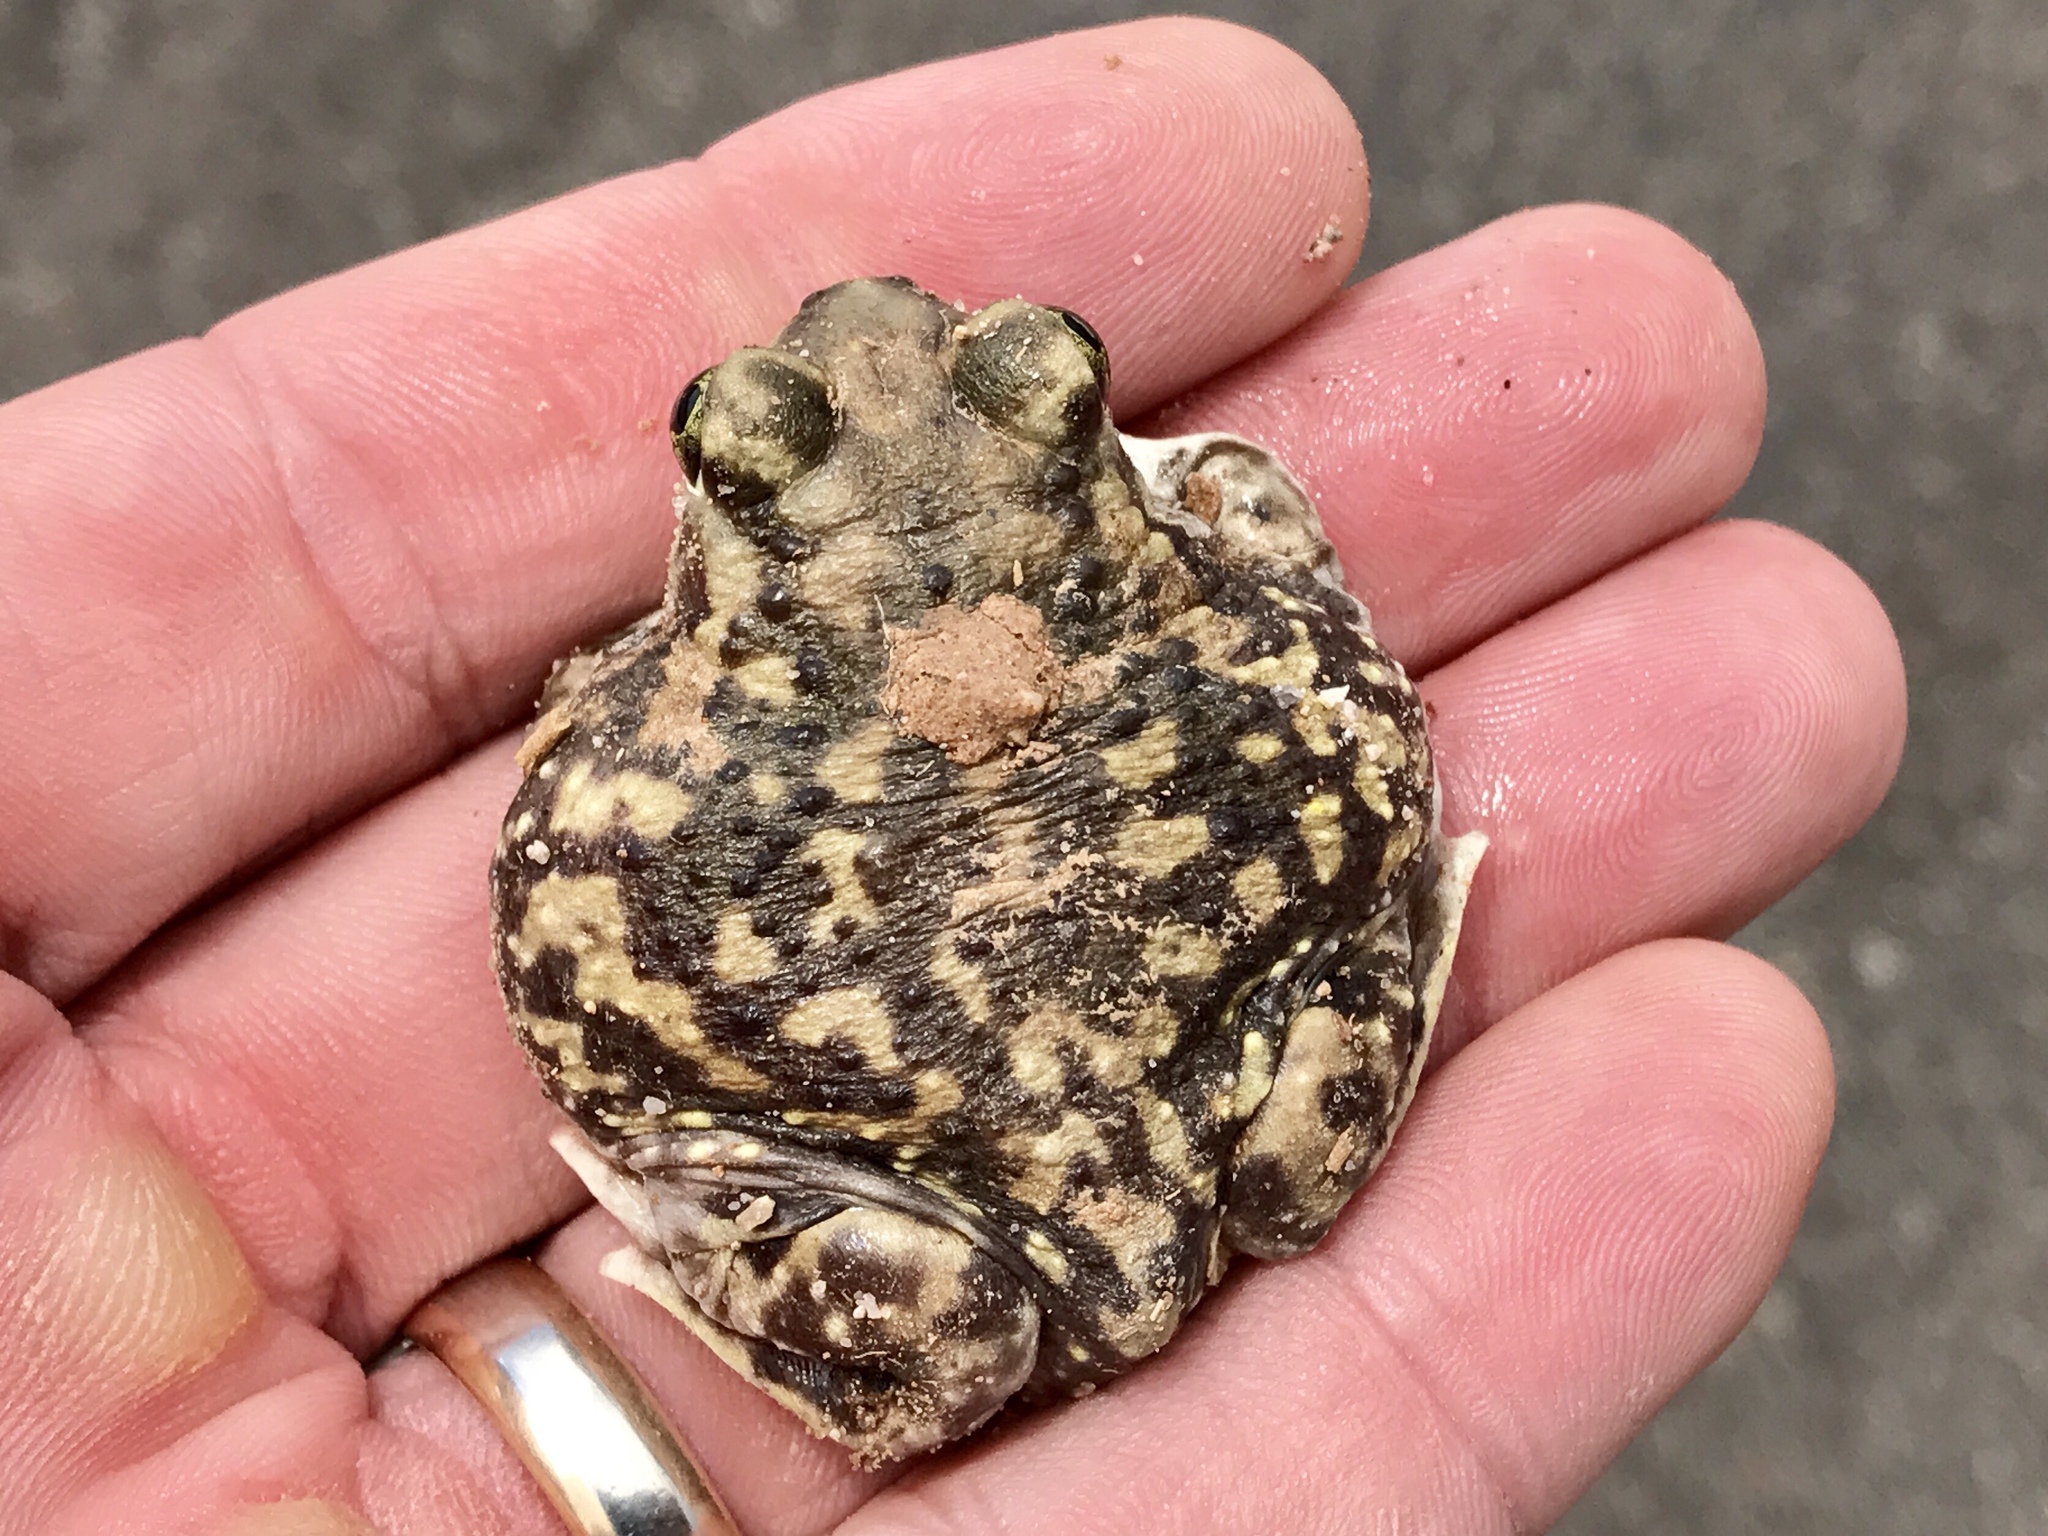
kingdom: Animalia
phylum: Chordata
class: Amphibia
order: Anura
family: Scaphiopodidae
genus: Scaphiopus
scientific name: Scaphiopus couchii
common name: Couch's spadefoot toad
